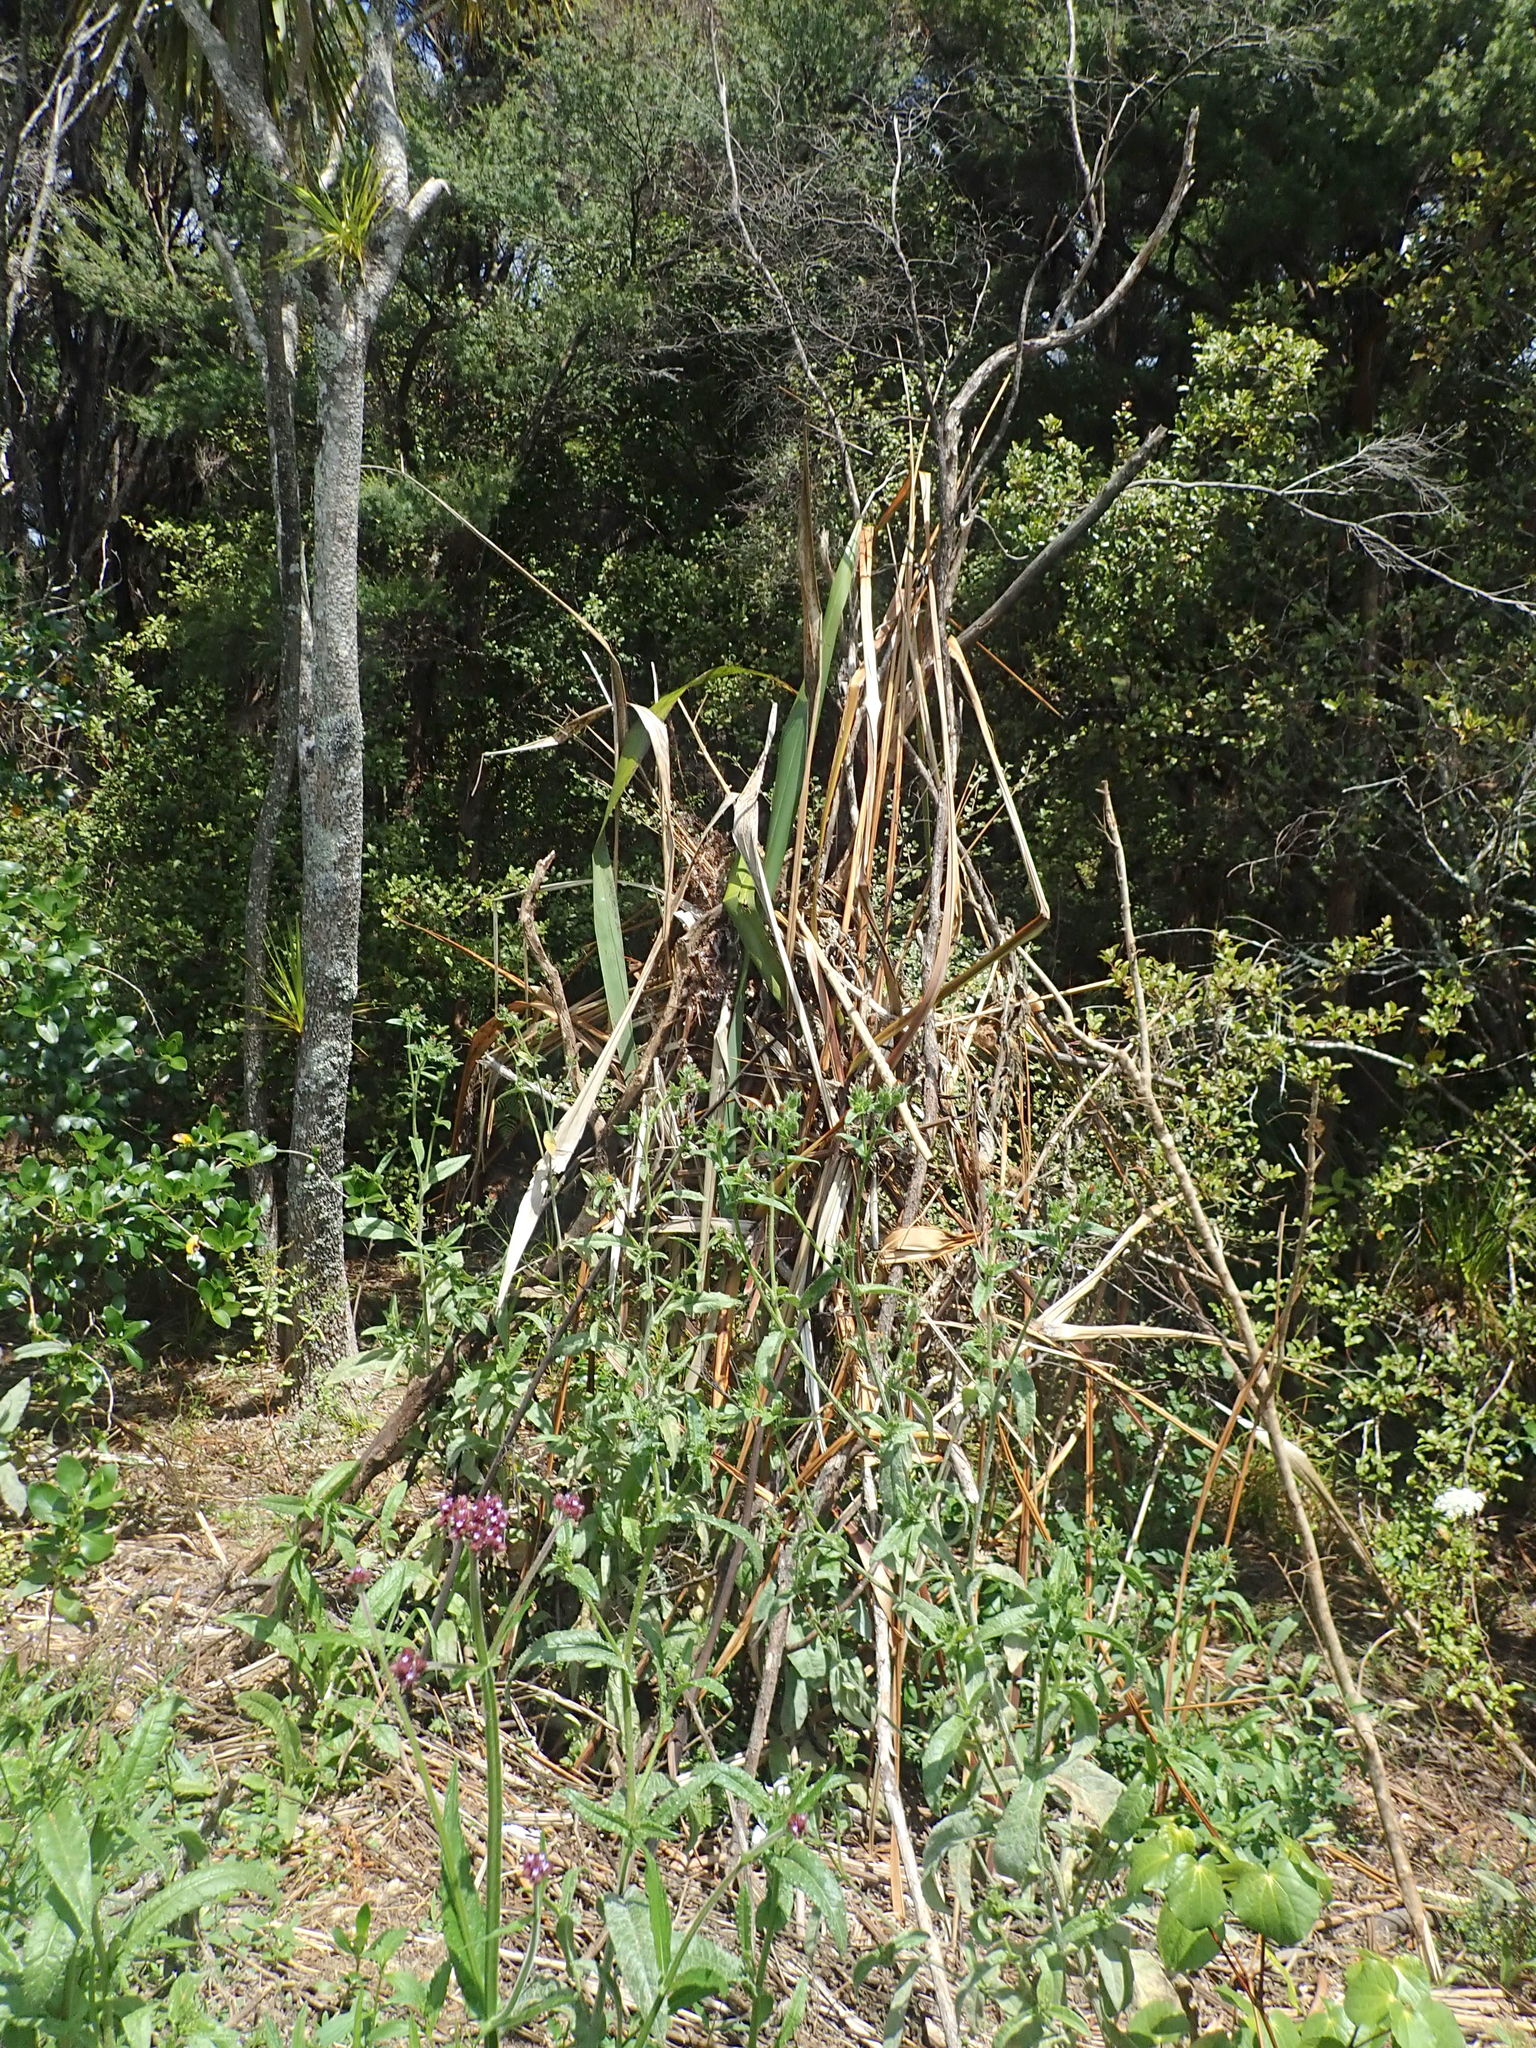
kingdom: Plantae
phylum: Tracheophyta
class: Magnoliopsida
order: Asterales
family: Rousseaceae
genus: Carpodetus
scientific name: Carpodetus serratus
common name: White mapau
